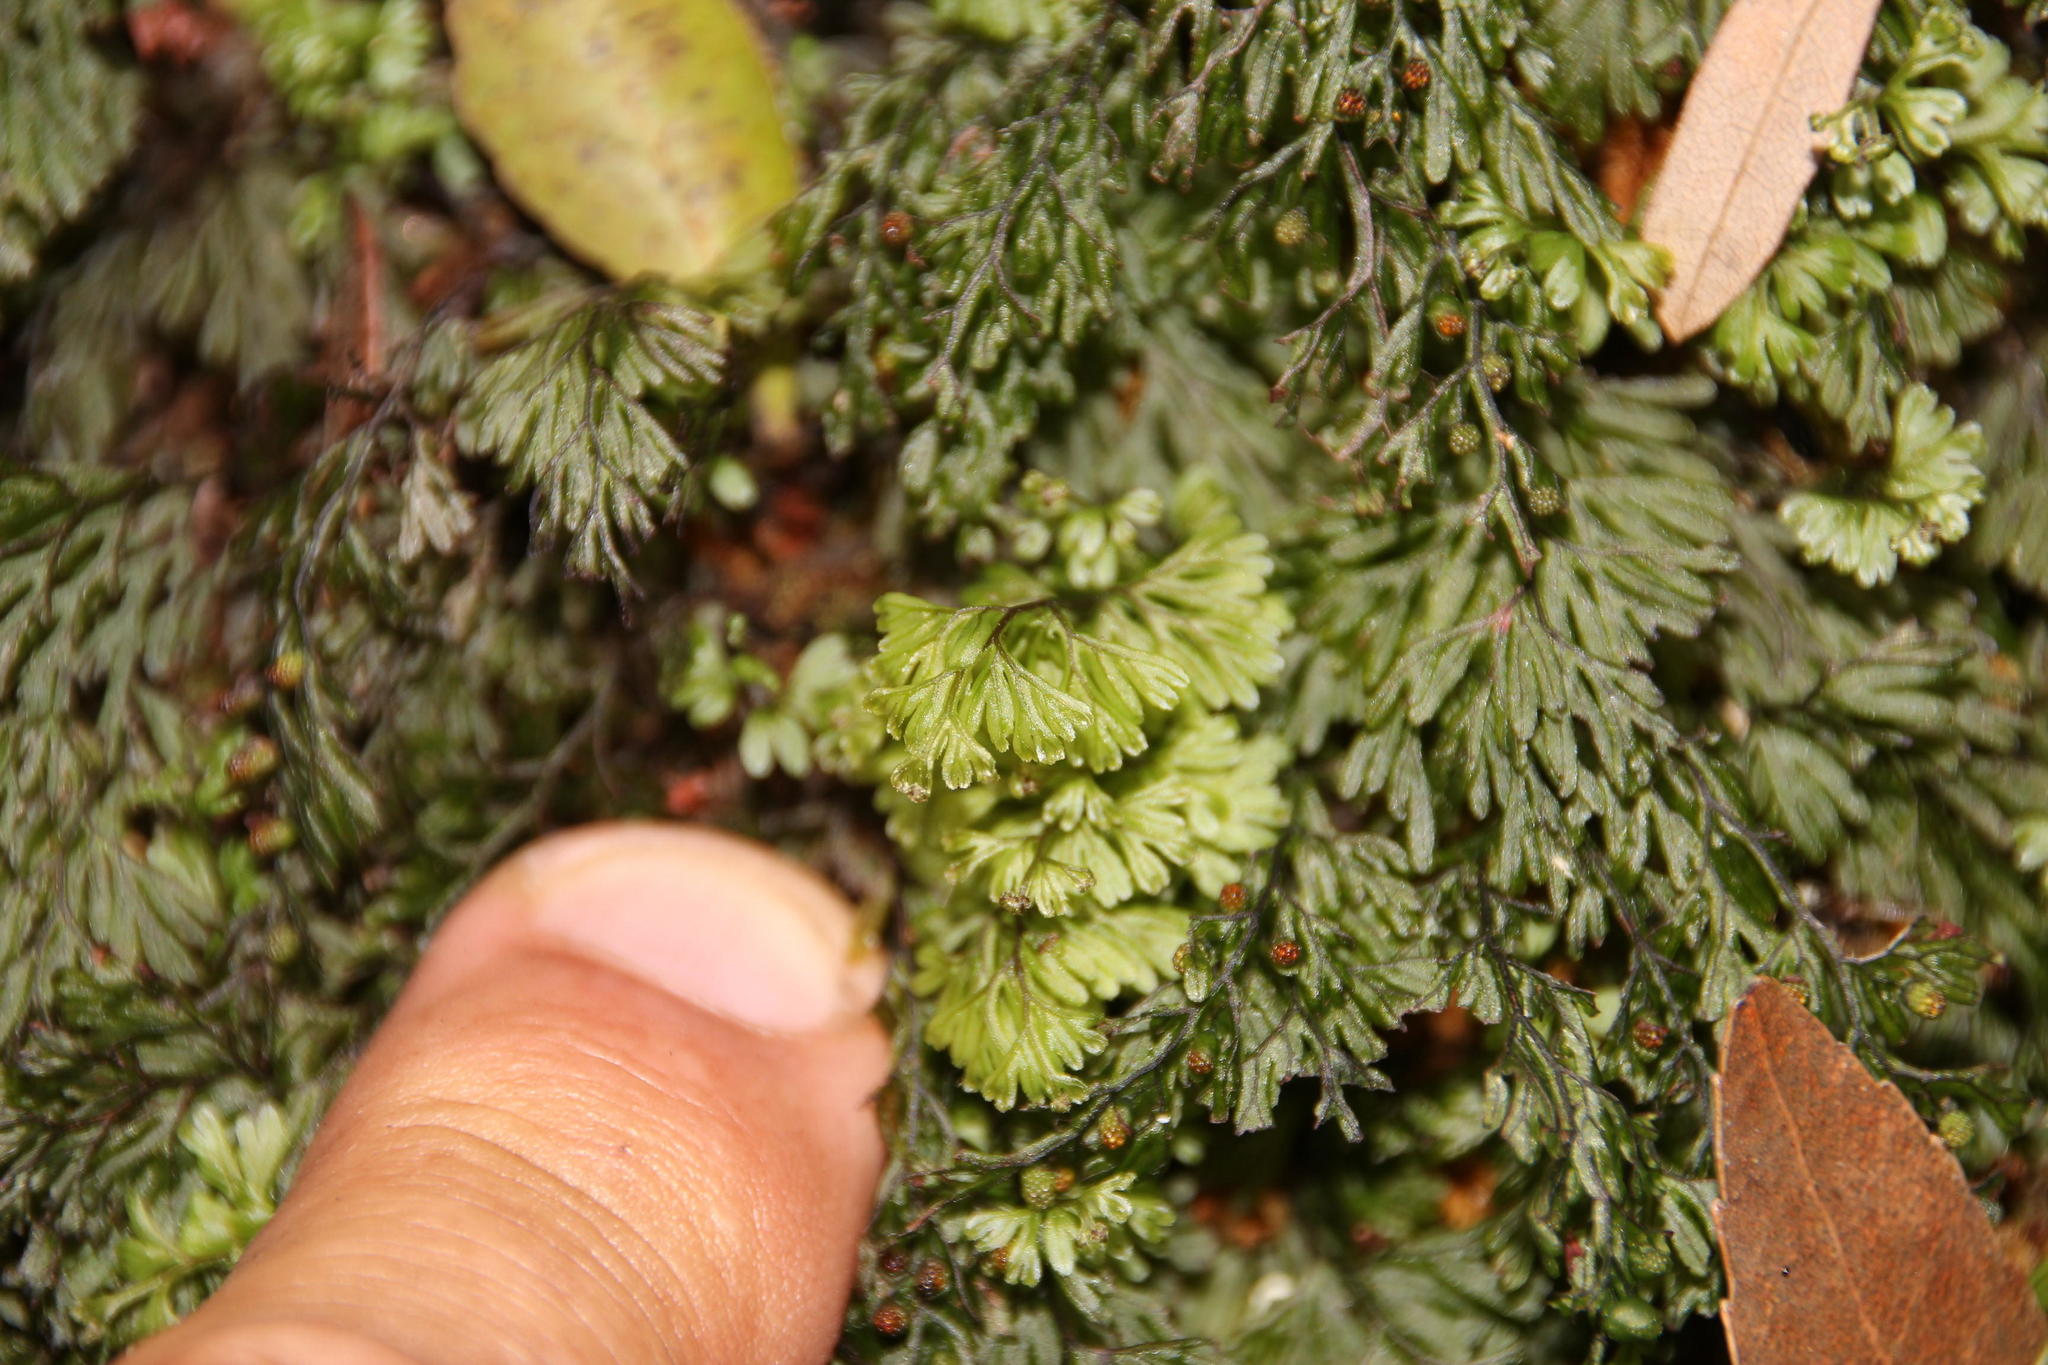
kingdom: Plantae
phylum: Tracheophyta
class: Polypodiopsida
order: Hymenophyllales
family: Hymenophyllaceae
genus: Hymenophyllum
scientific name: Hymenophyllum tunbrigense
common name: Tunbridge filmy fern
